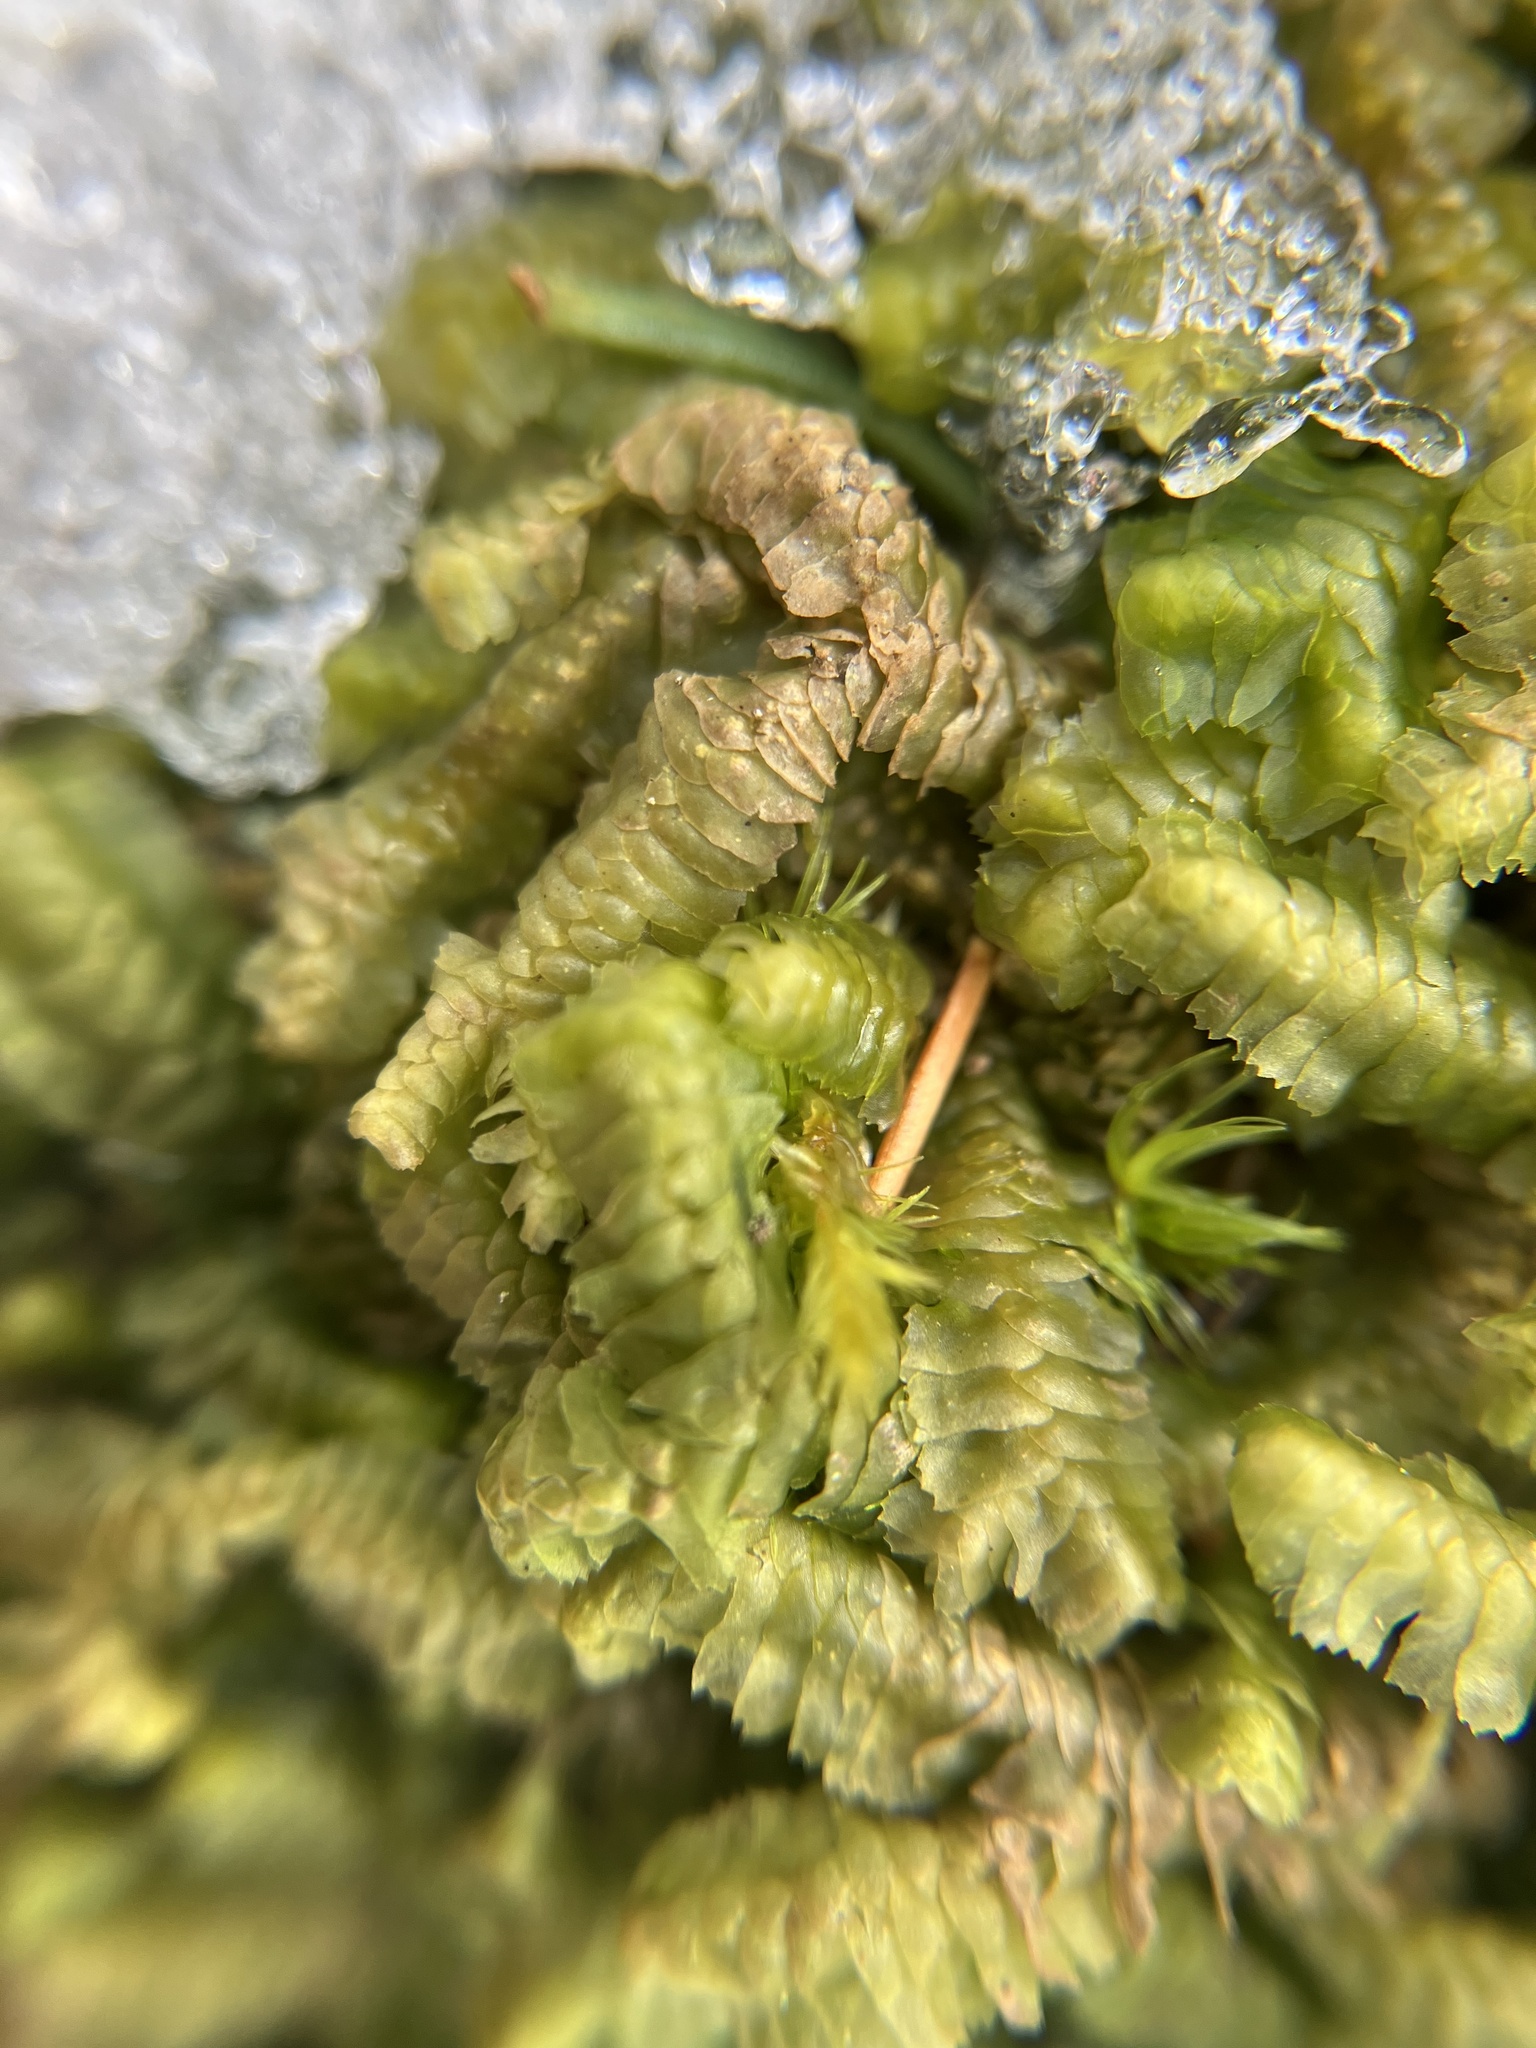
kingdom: Plantae
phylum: Marchantiophyta
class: Jungermanniopsida
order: Jungermanniales
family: Lepidoziaceae
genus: Bazzania
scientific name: Bazzania trilobata
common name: Three-lobed whipwort
